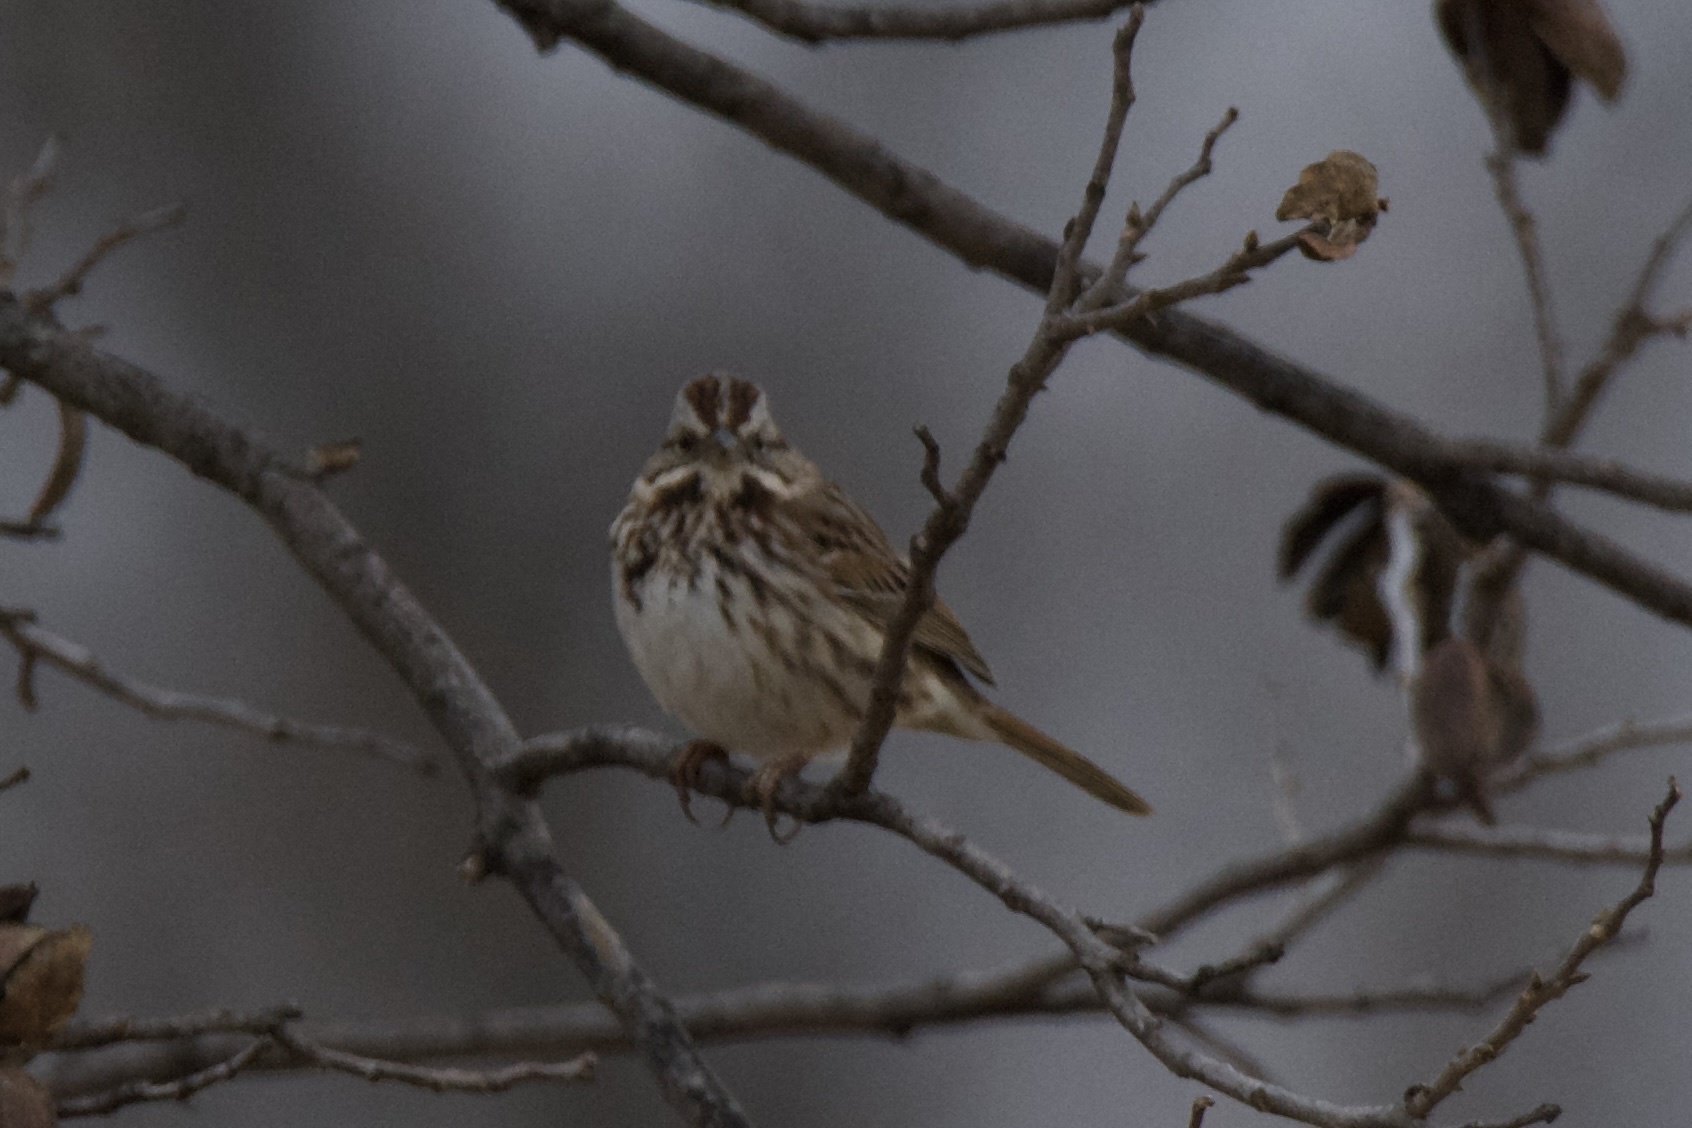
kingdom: Animalia
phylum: Chordata
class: Aves
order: Passeriformes
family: Passerellidae
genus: Melospiza
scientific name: Melospiza melodia
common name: Song sparrow
